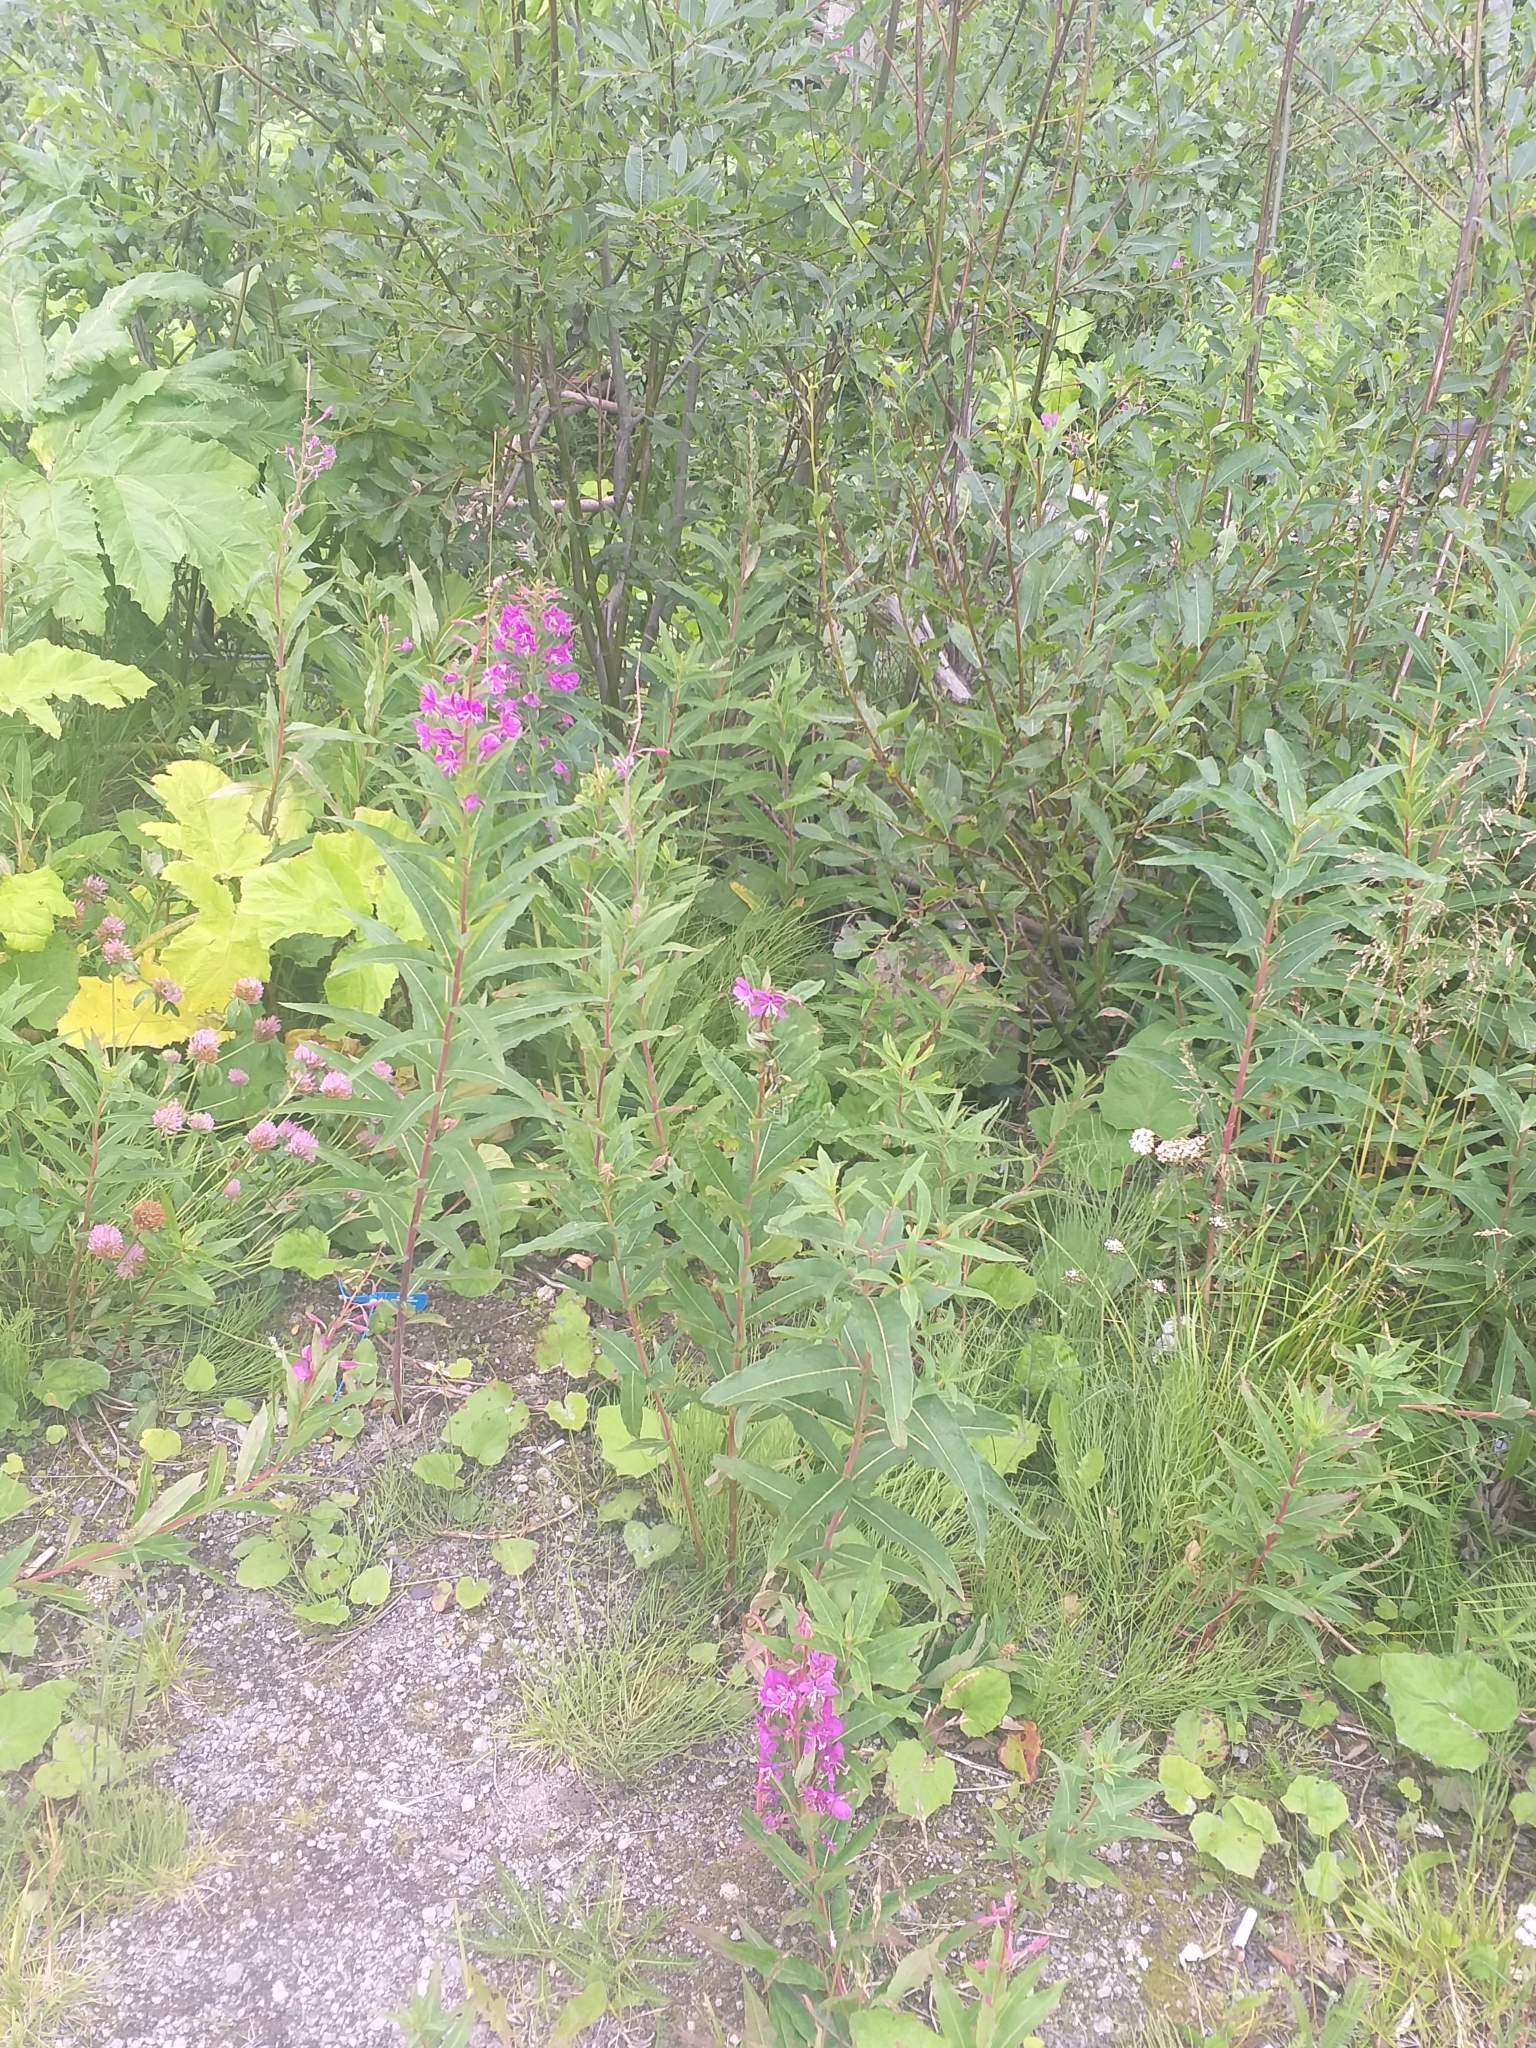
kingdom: Plantae
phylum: Tracheophyta
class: Magnoliopsida
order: Myrtales
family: Onagraceae
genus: Chamaenerion
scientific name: Chamaenerion angustifolium
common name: Fireweed
